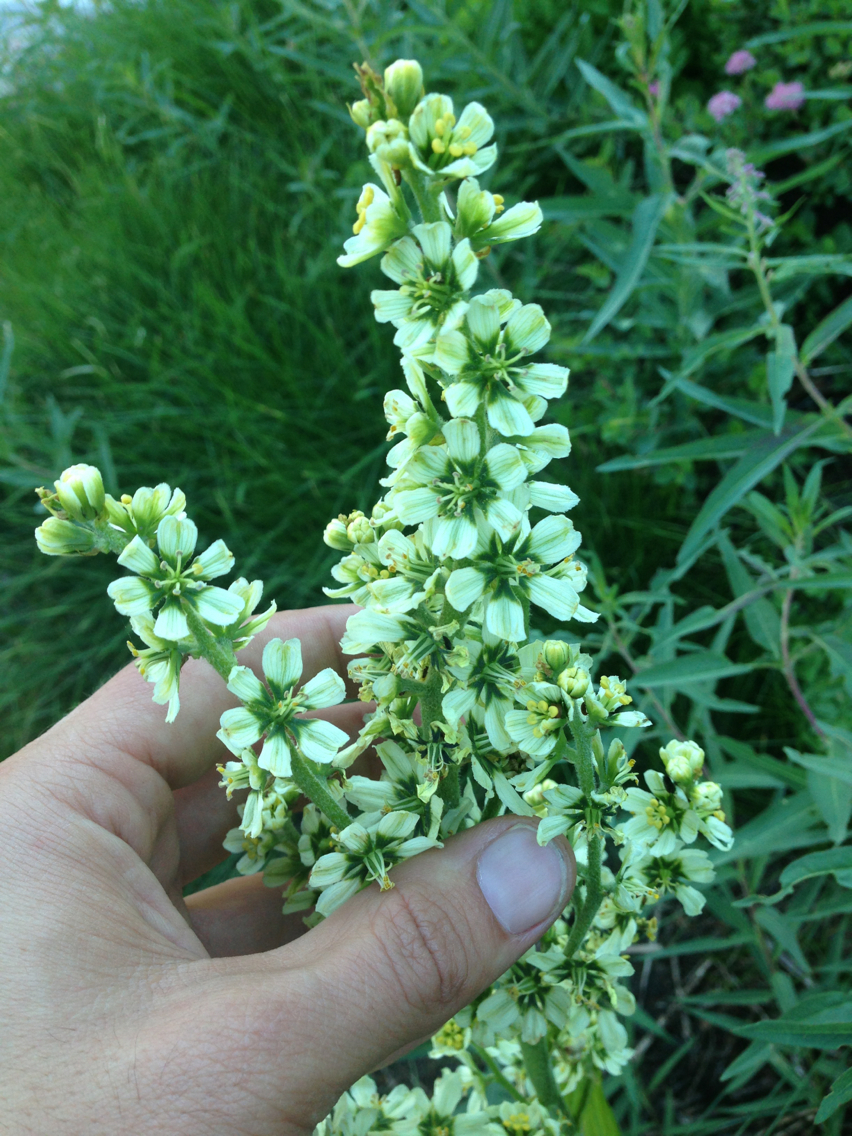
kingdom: Plantae
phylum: Tracheophyta
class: Liliopsida
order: Liliales
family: Melanthiaceae
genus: Veratrum
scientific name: Veratrum californicum
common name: California veratrum
